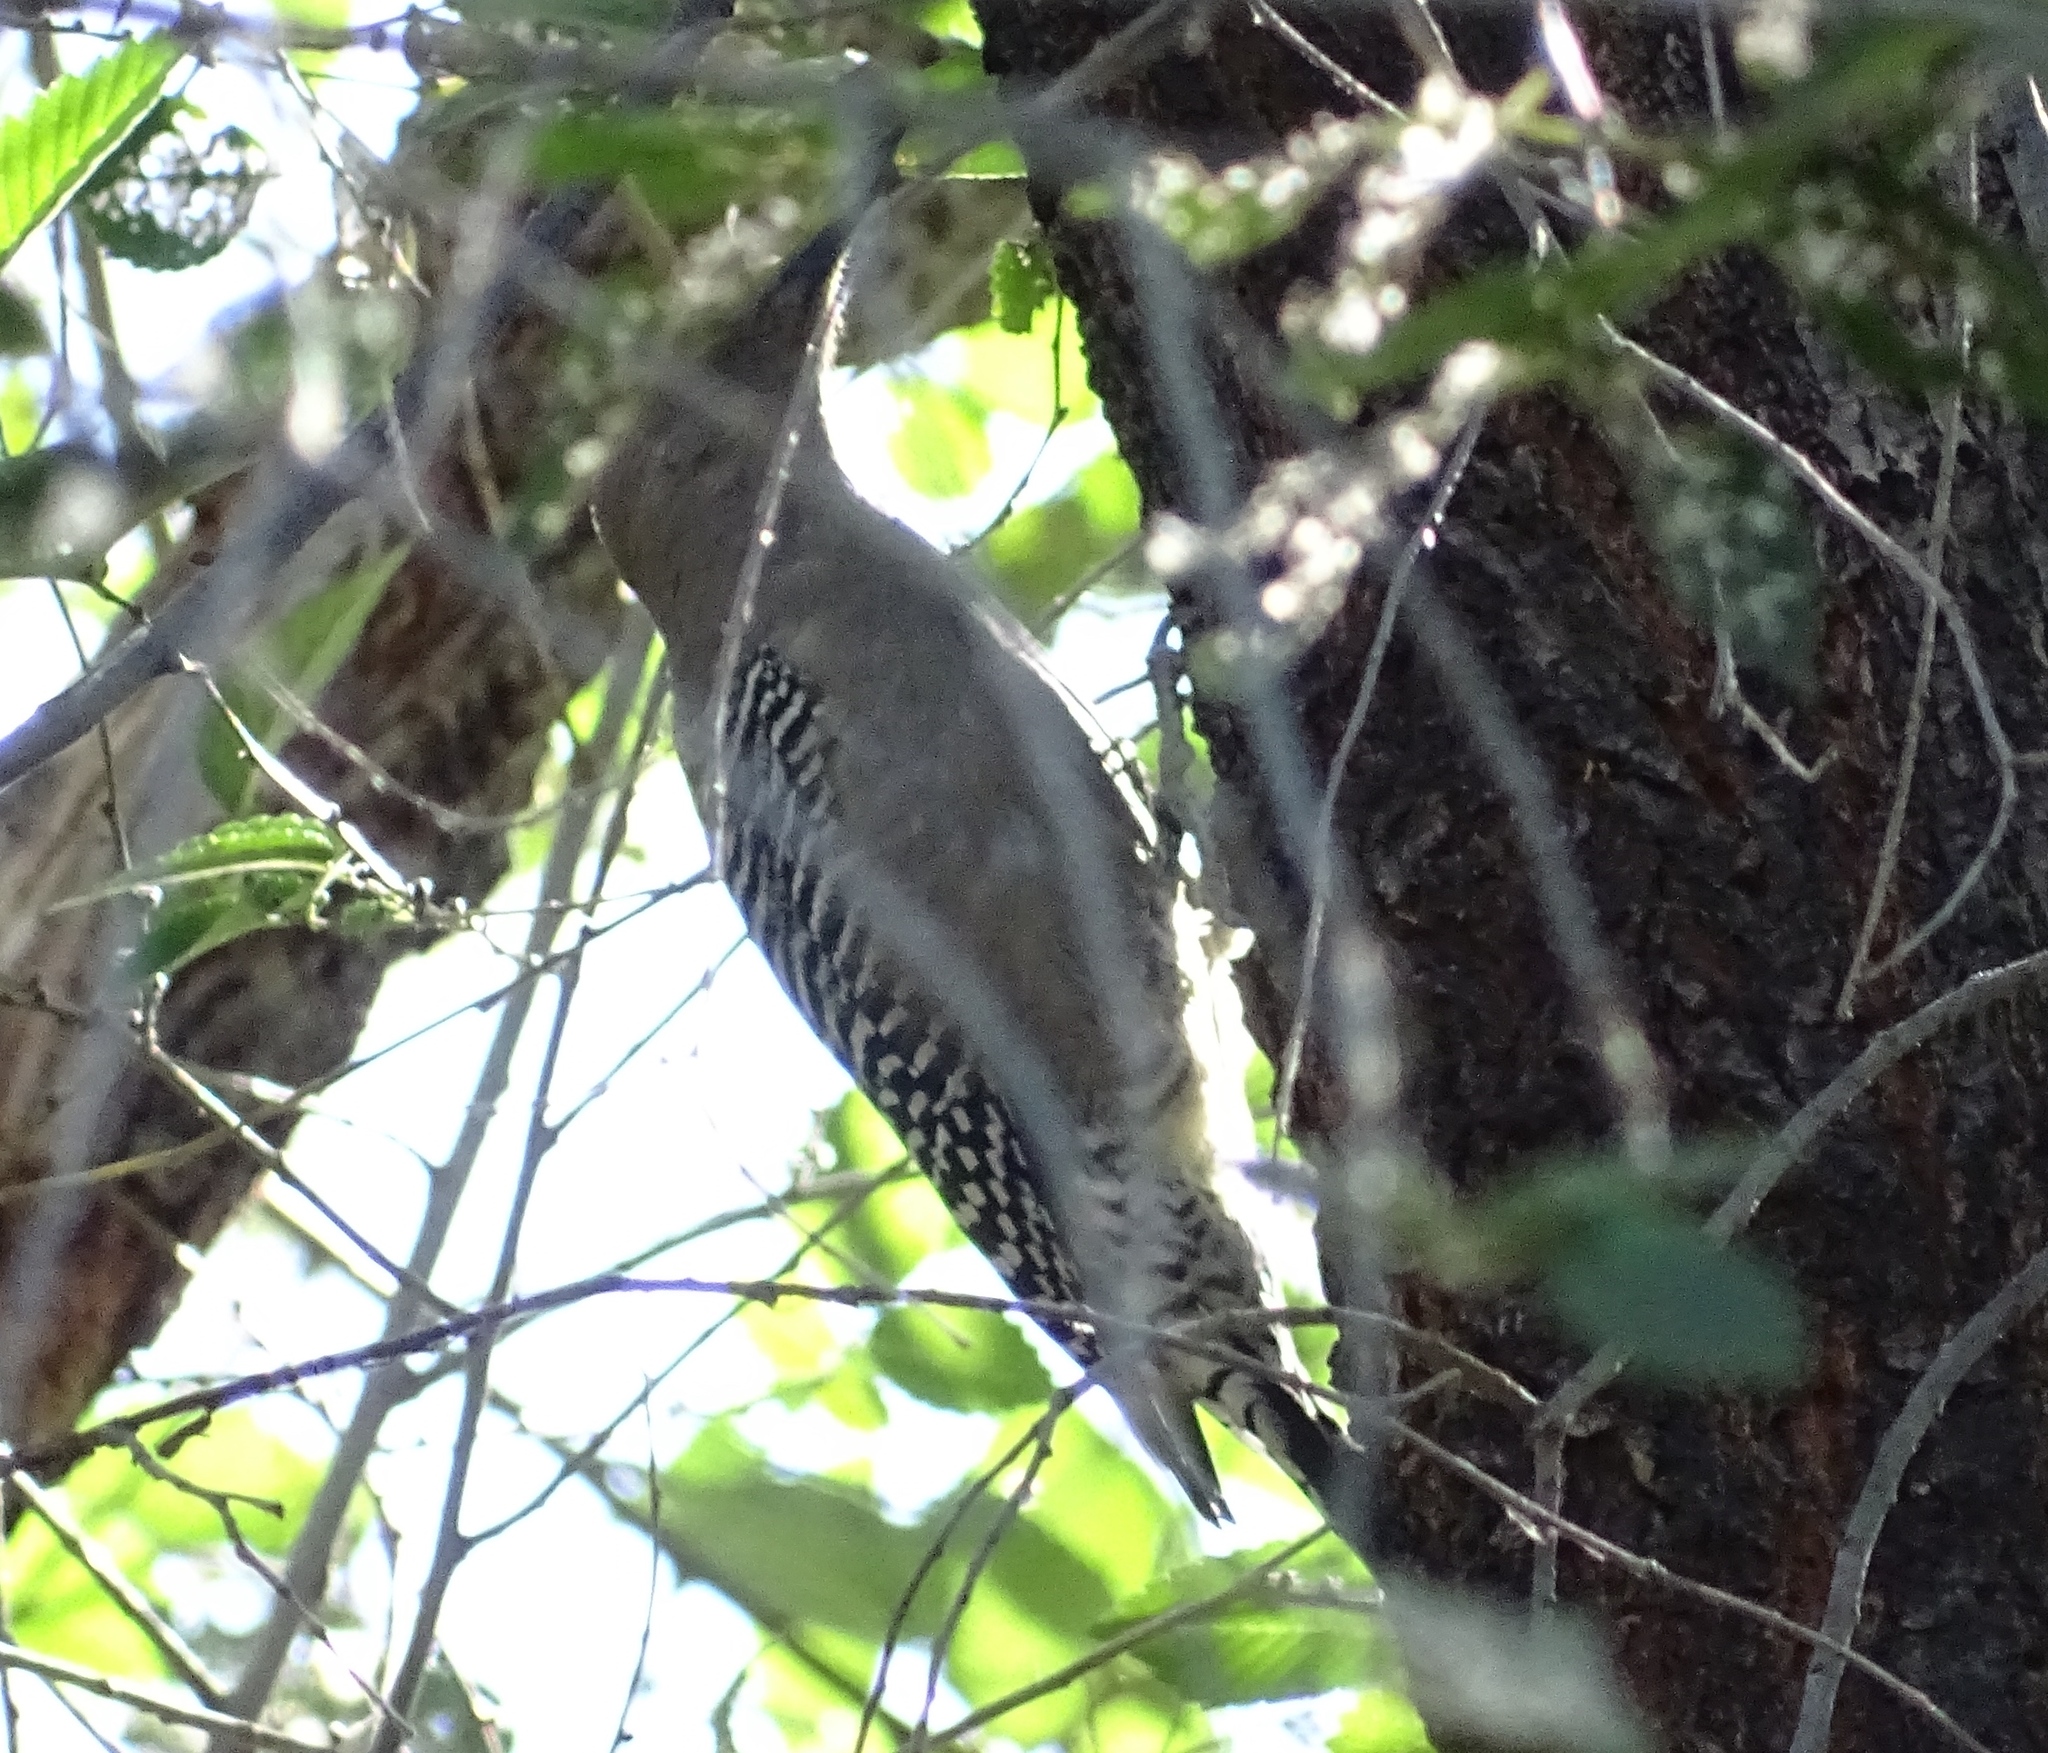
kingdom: Animalia
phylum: Chordata
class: Aves
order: Piciformes
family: Picidae
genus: Melanerpes
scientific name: Melanerpes uropygialis
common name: Gila woodpecker
